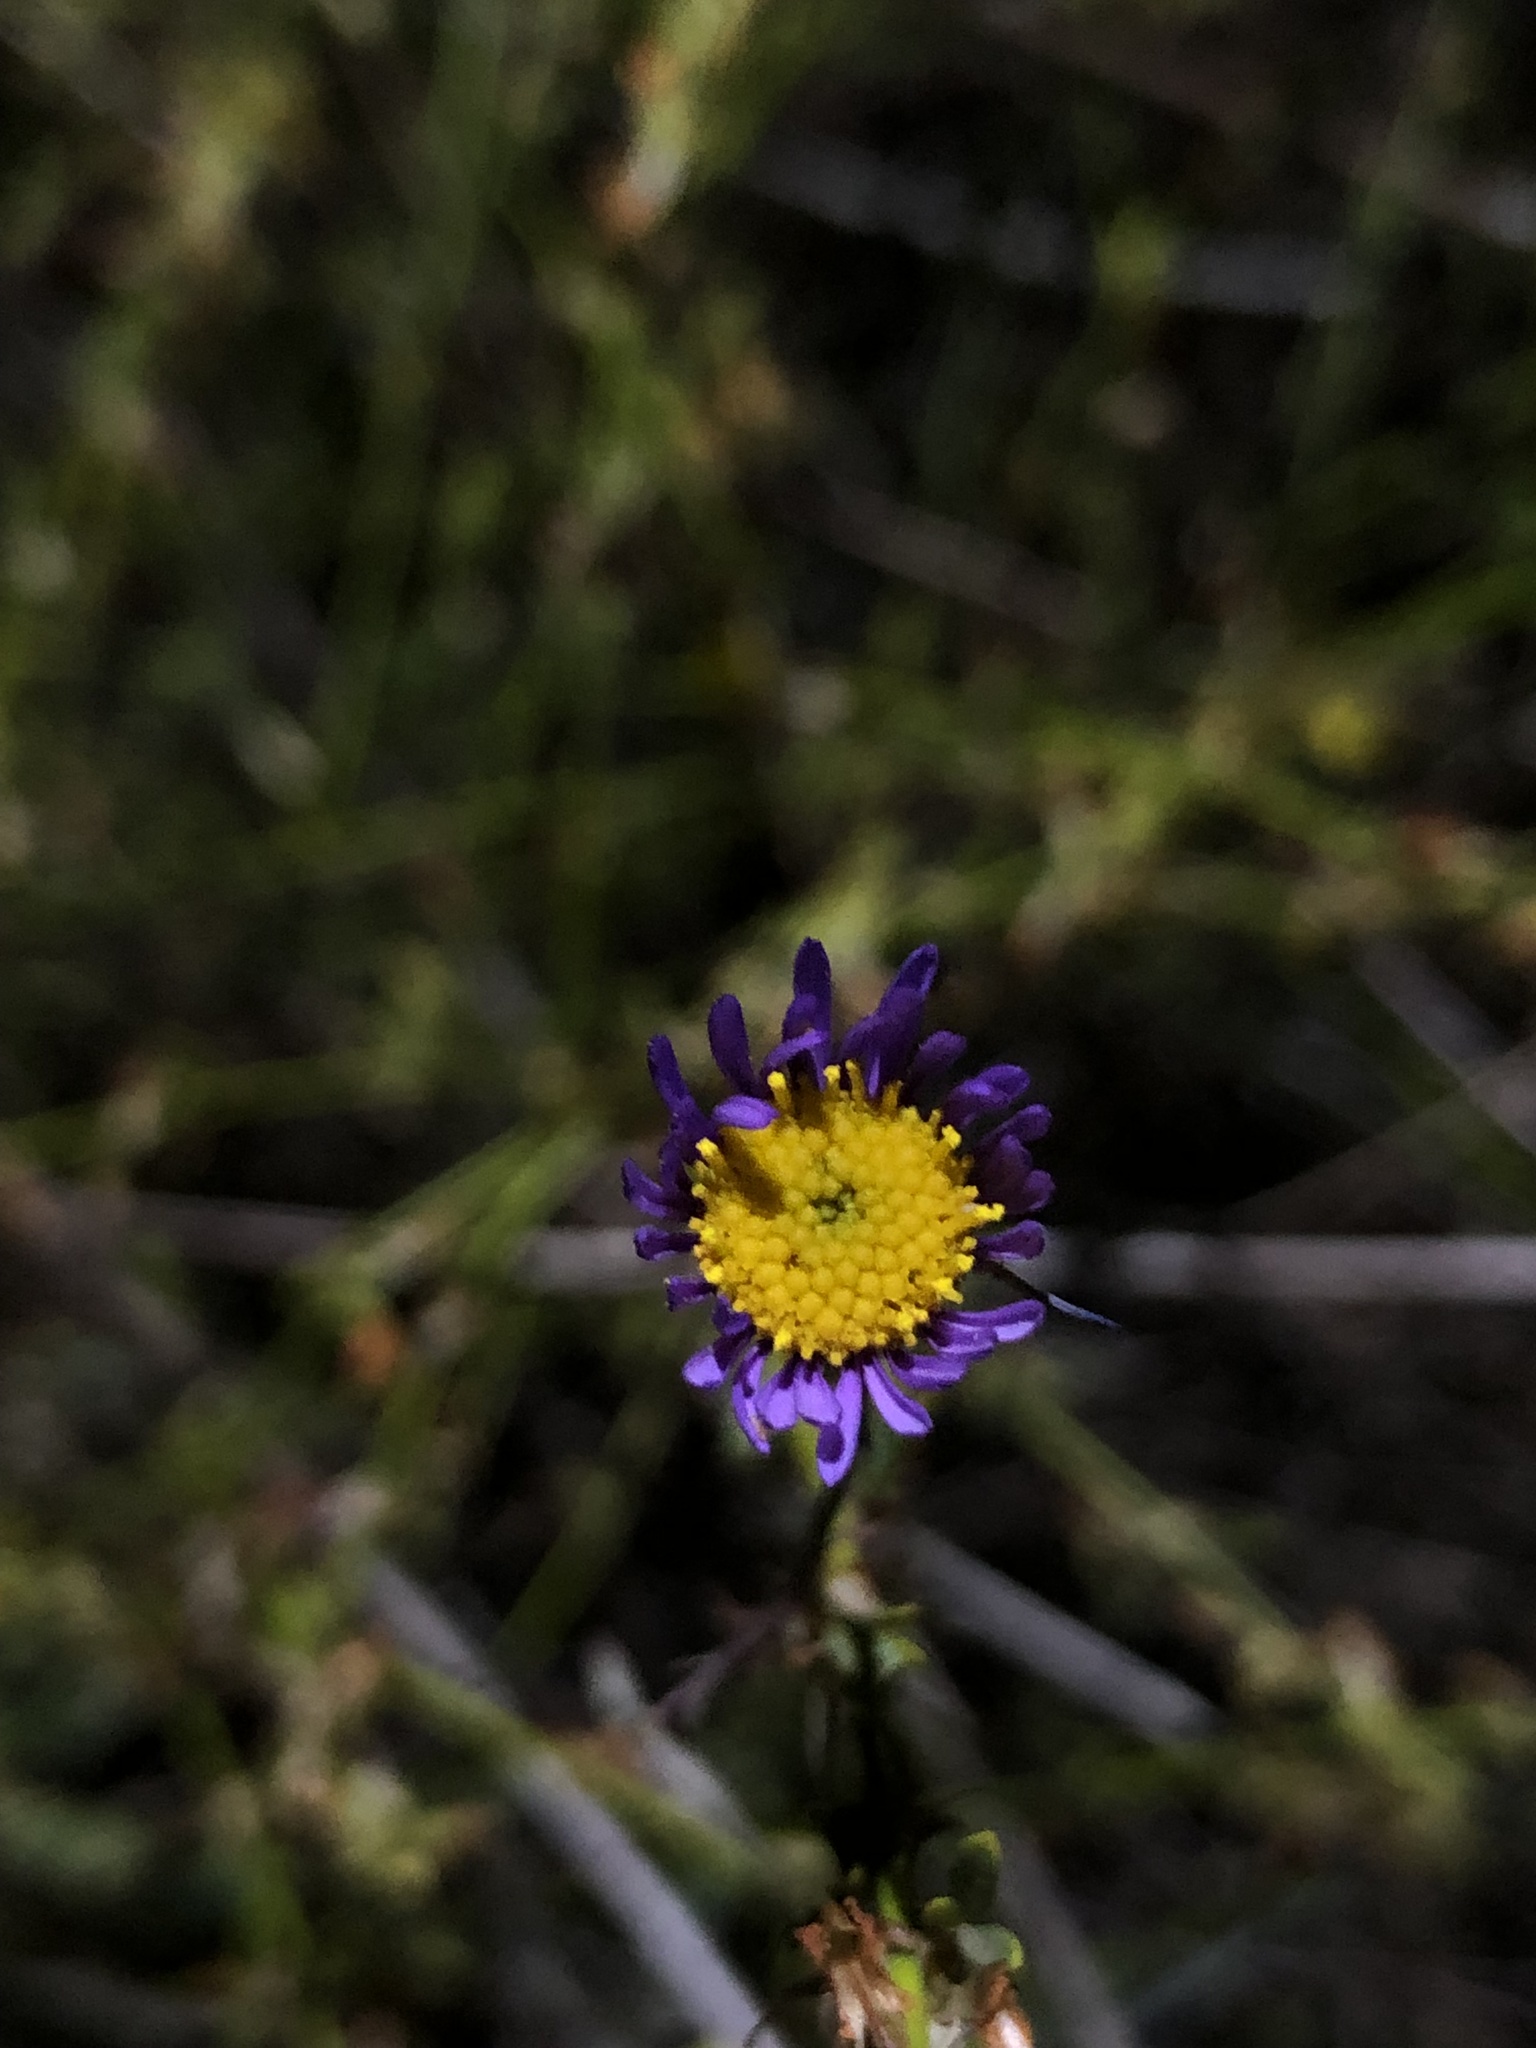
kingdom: Plantae
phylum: Tracheophyta
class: Magnoliopsida
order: Asterales
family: Asteraceae
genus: Erigeron
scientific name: Erigeron foliosus
